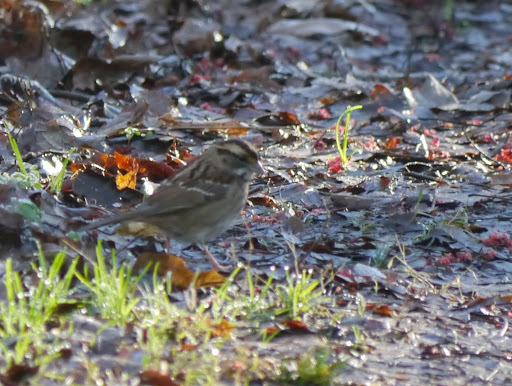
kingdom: Animalia
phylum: Chordata
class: Aves
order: Passeriformes
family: Passerellidae
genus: Zonotrichia
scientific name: Zonotrichia albicollis
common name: White-throated sparrow
